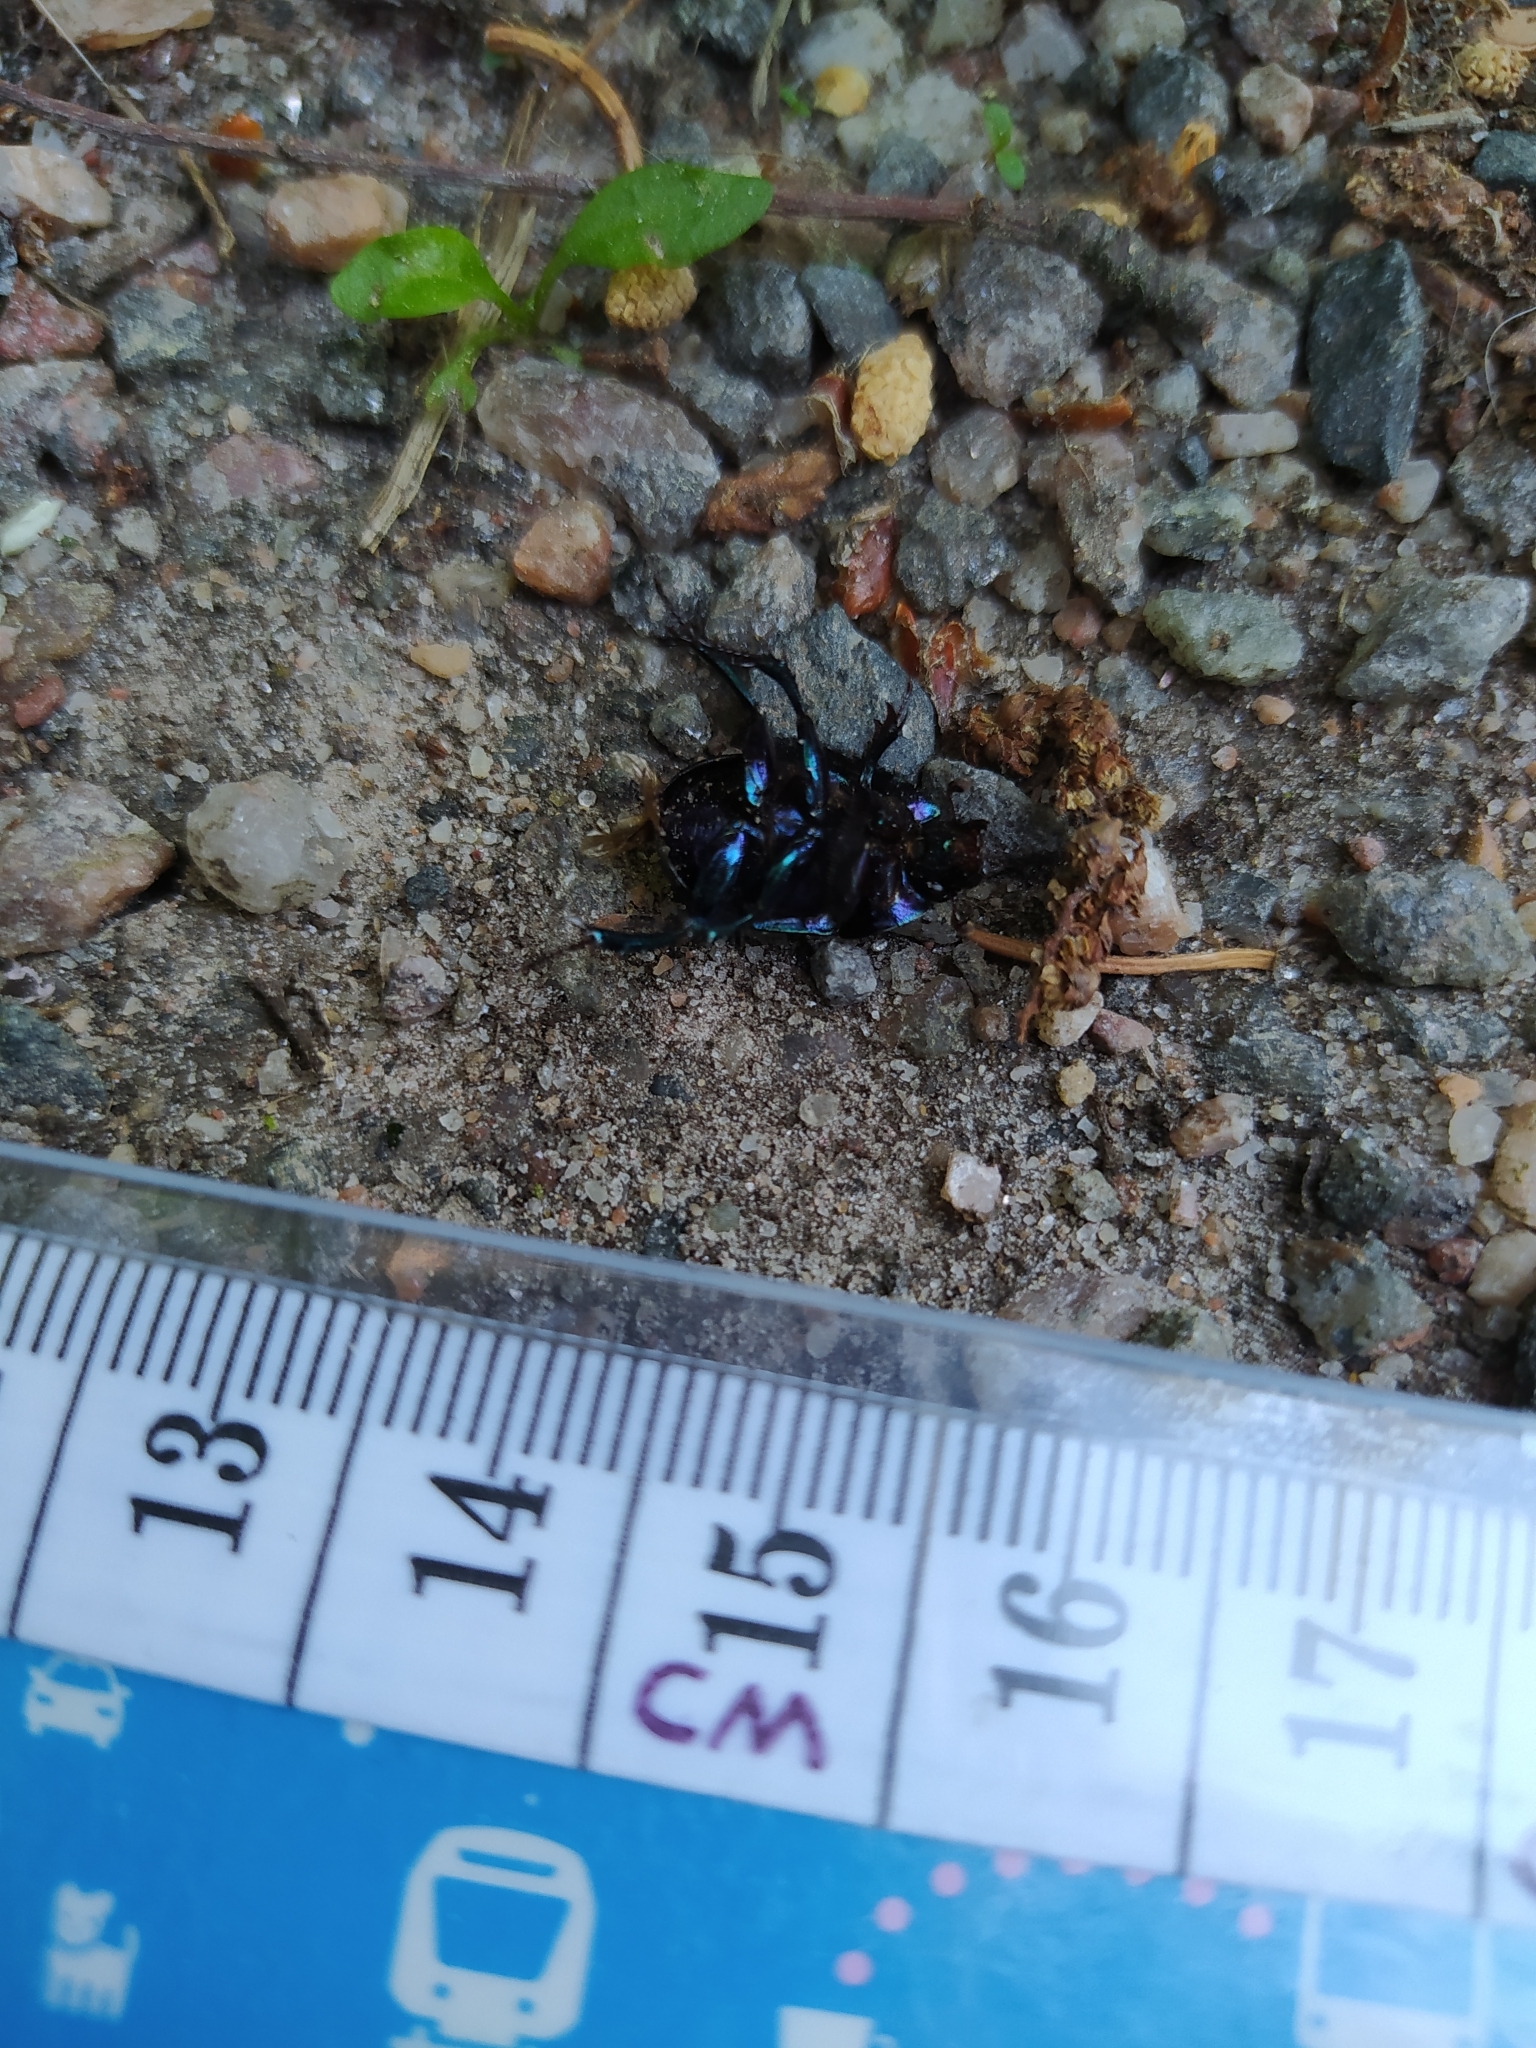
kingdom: Animalia
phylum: Arthropoda
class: Insecta
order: Coleoptera
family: Geotrupidae
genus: Anoplotrupes
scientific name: Anoplotrupes stercorosus
